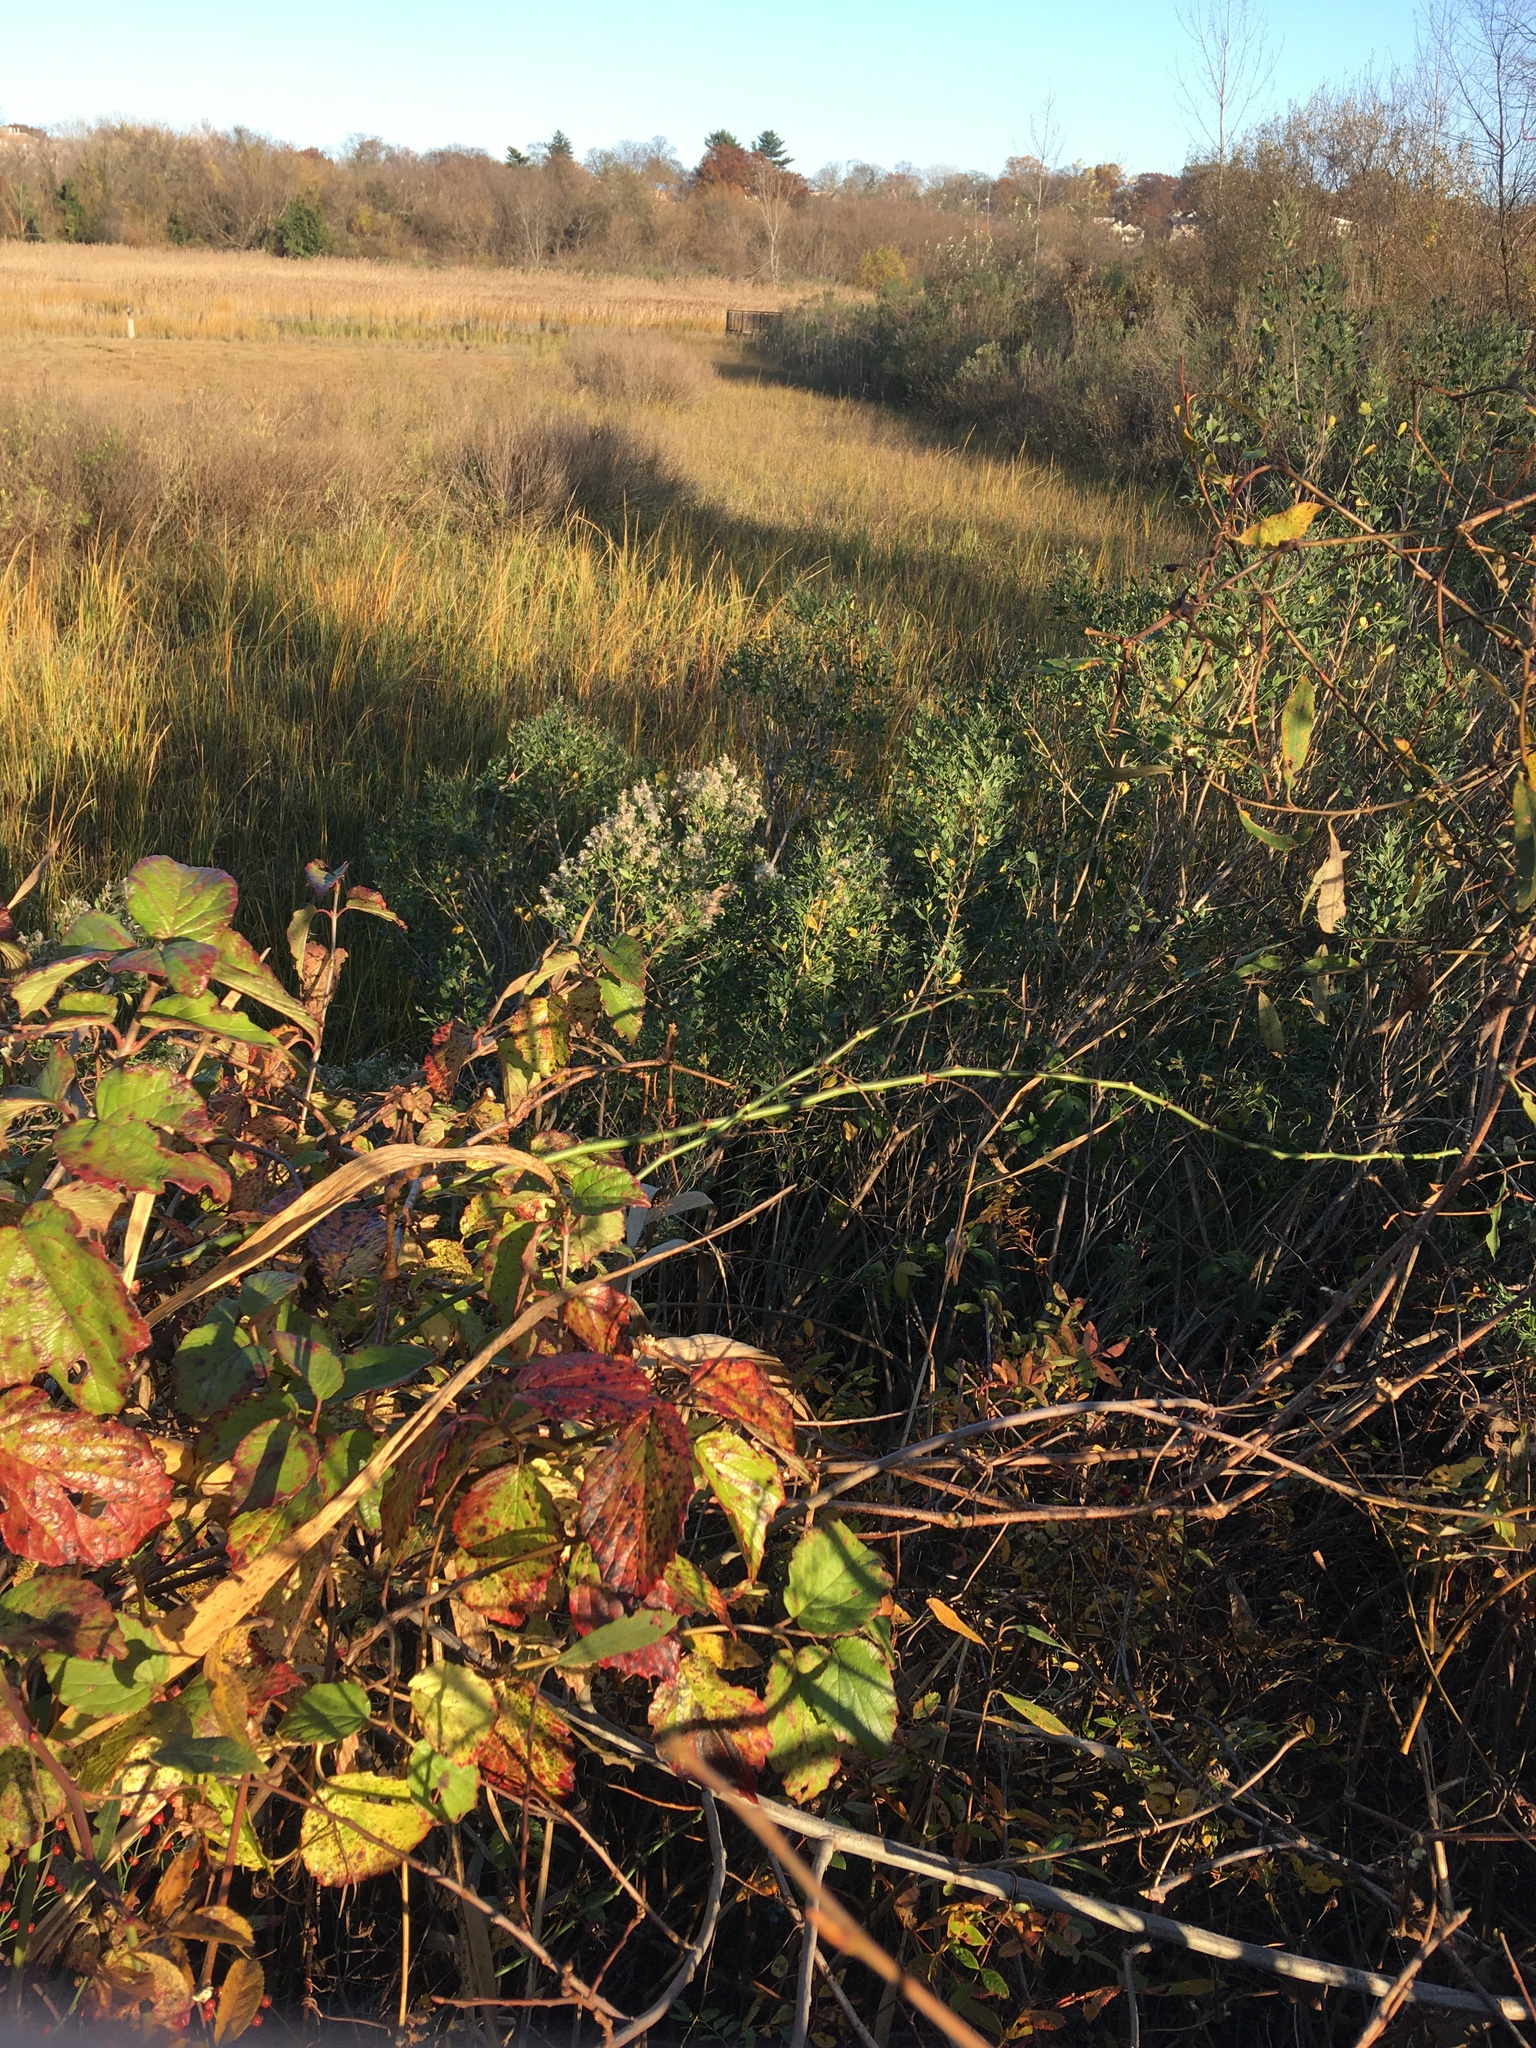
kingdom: Plantae
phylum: Tracheophyta
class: Magnoliopsida
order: Asterales
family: Asteraceae
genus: Baccharis
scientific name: Baccharis halimifolia
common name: Eastern baccharis
